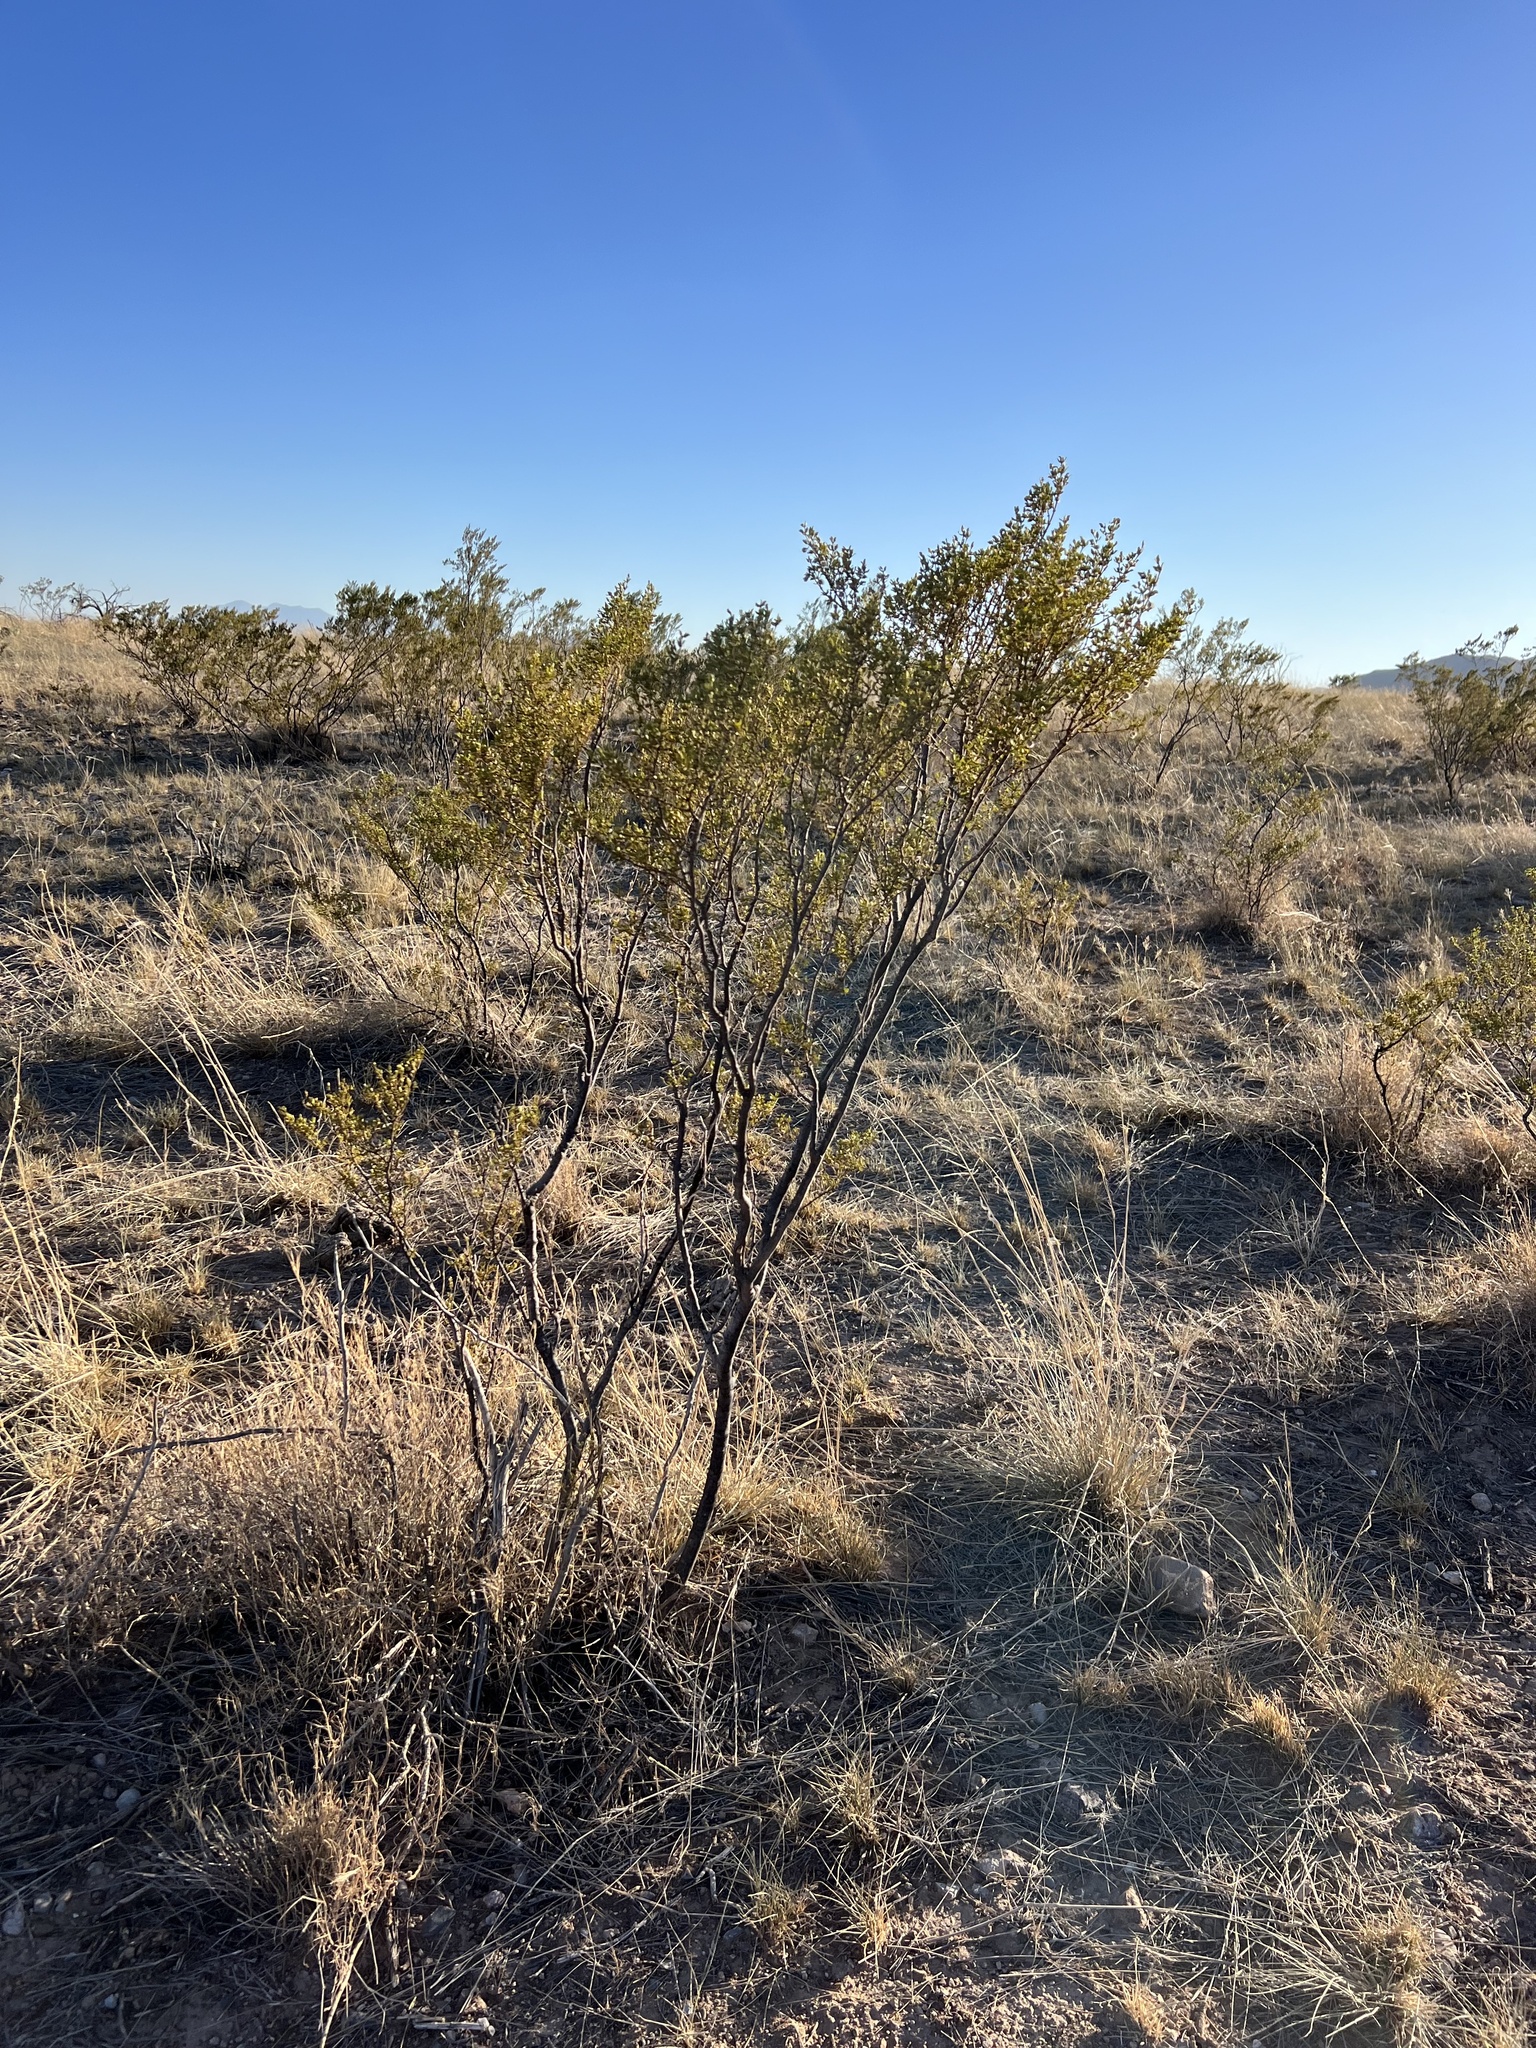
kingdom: Plantae
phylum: Tracheophyta
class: Magnoliopsida
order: Zygophyllales
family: Zygophyllaceae
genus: Larrea
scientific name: Larrea tridentata
